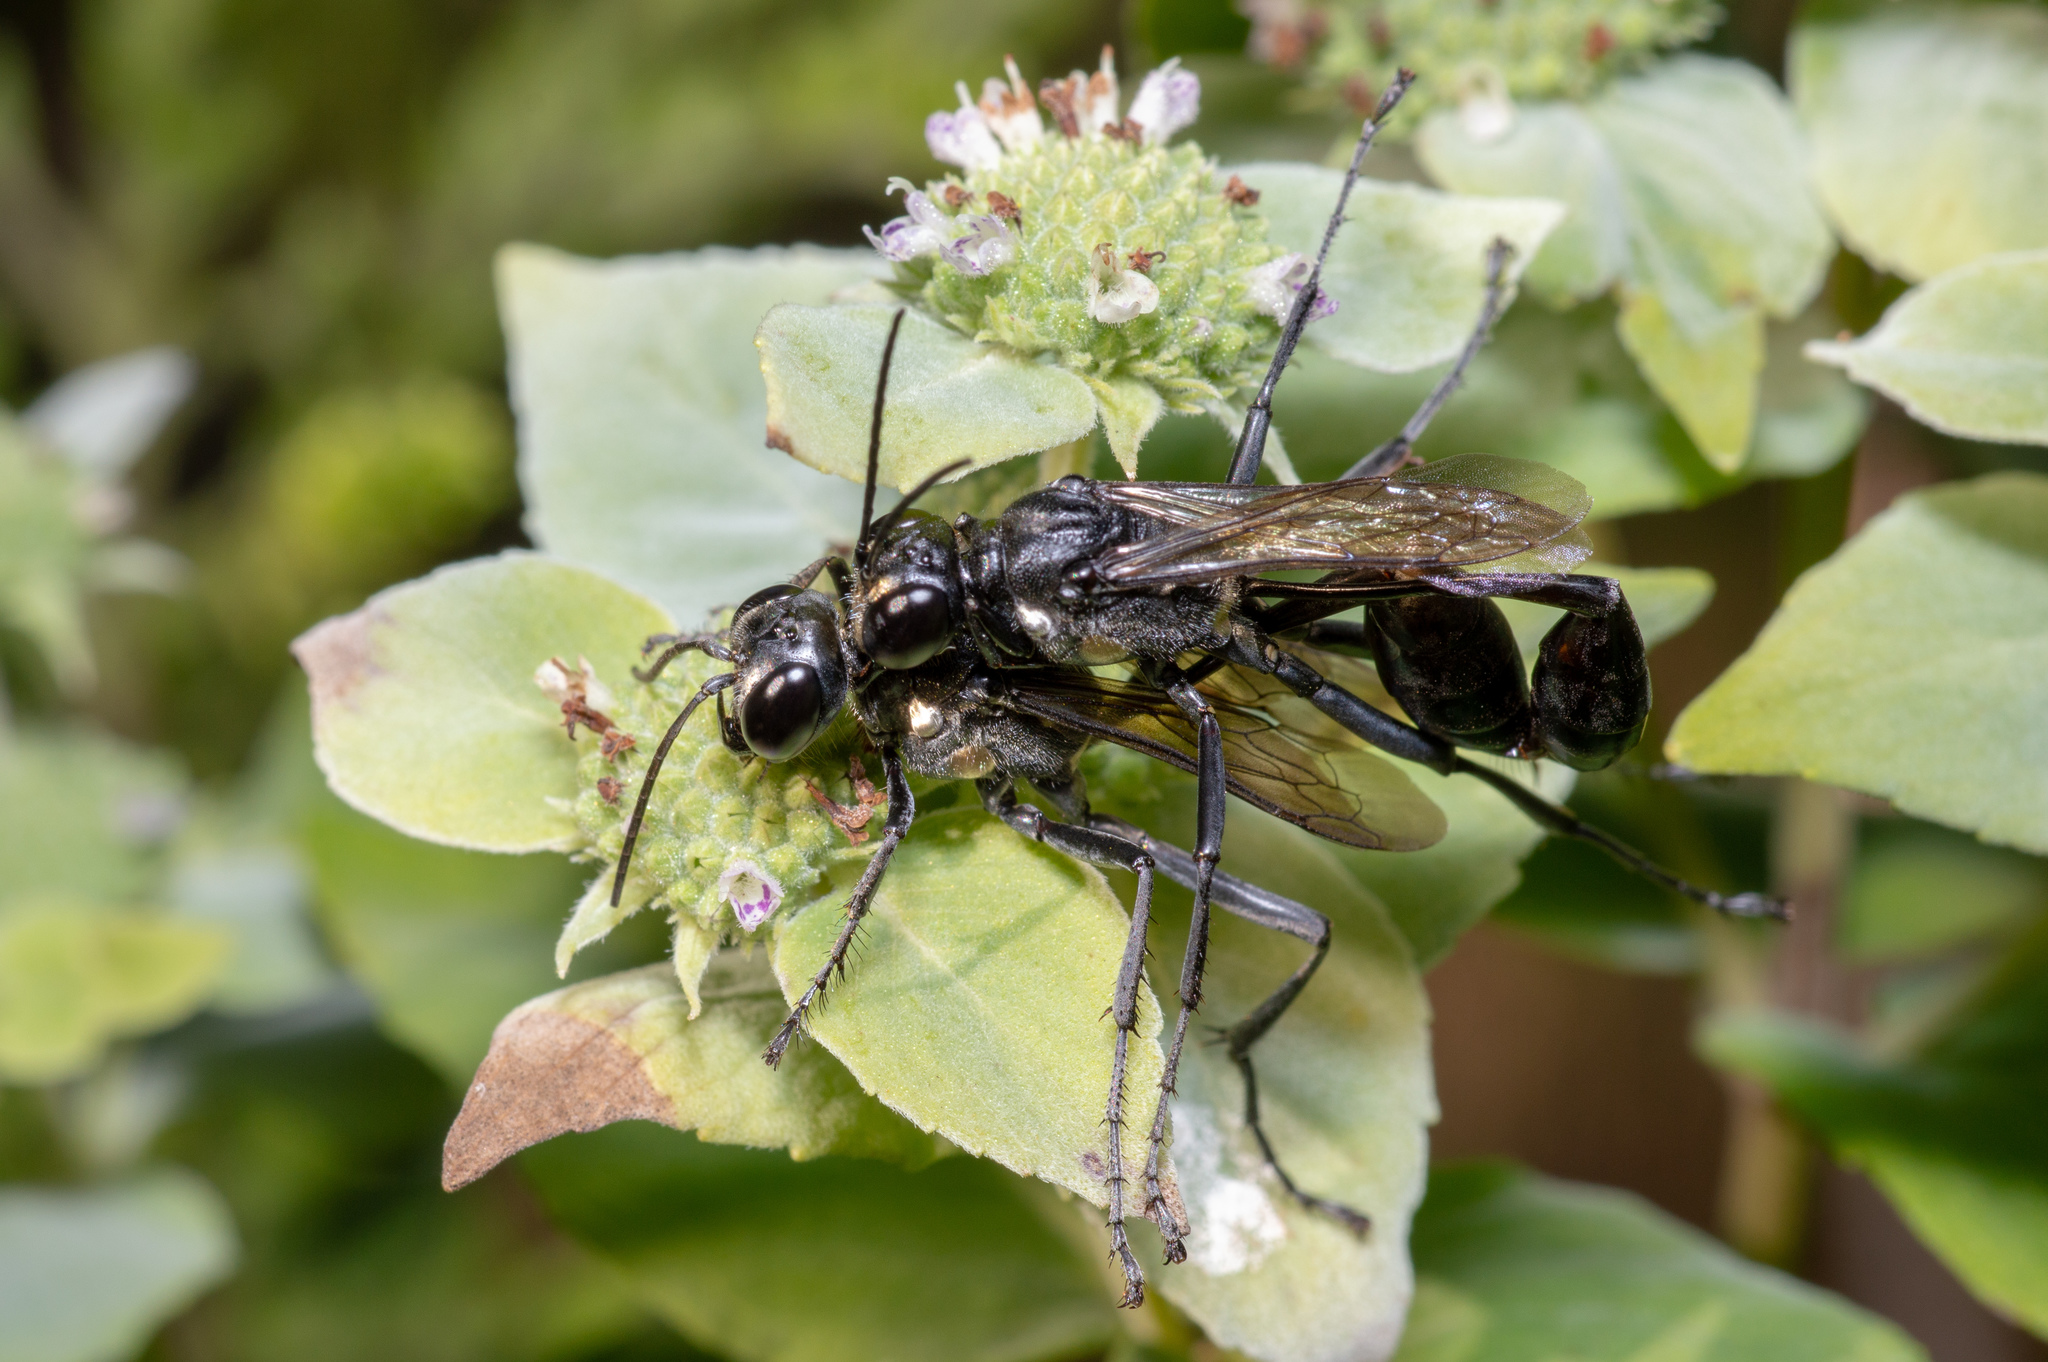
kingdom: Animalia
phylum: Arthropoda
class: Insecta
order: Hymenoptera
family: Sphecidae
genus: Eremnophila
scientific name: Eremnophila aureonotata
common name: Gold-marked thread-waisted wasp
